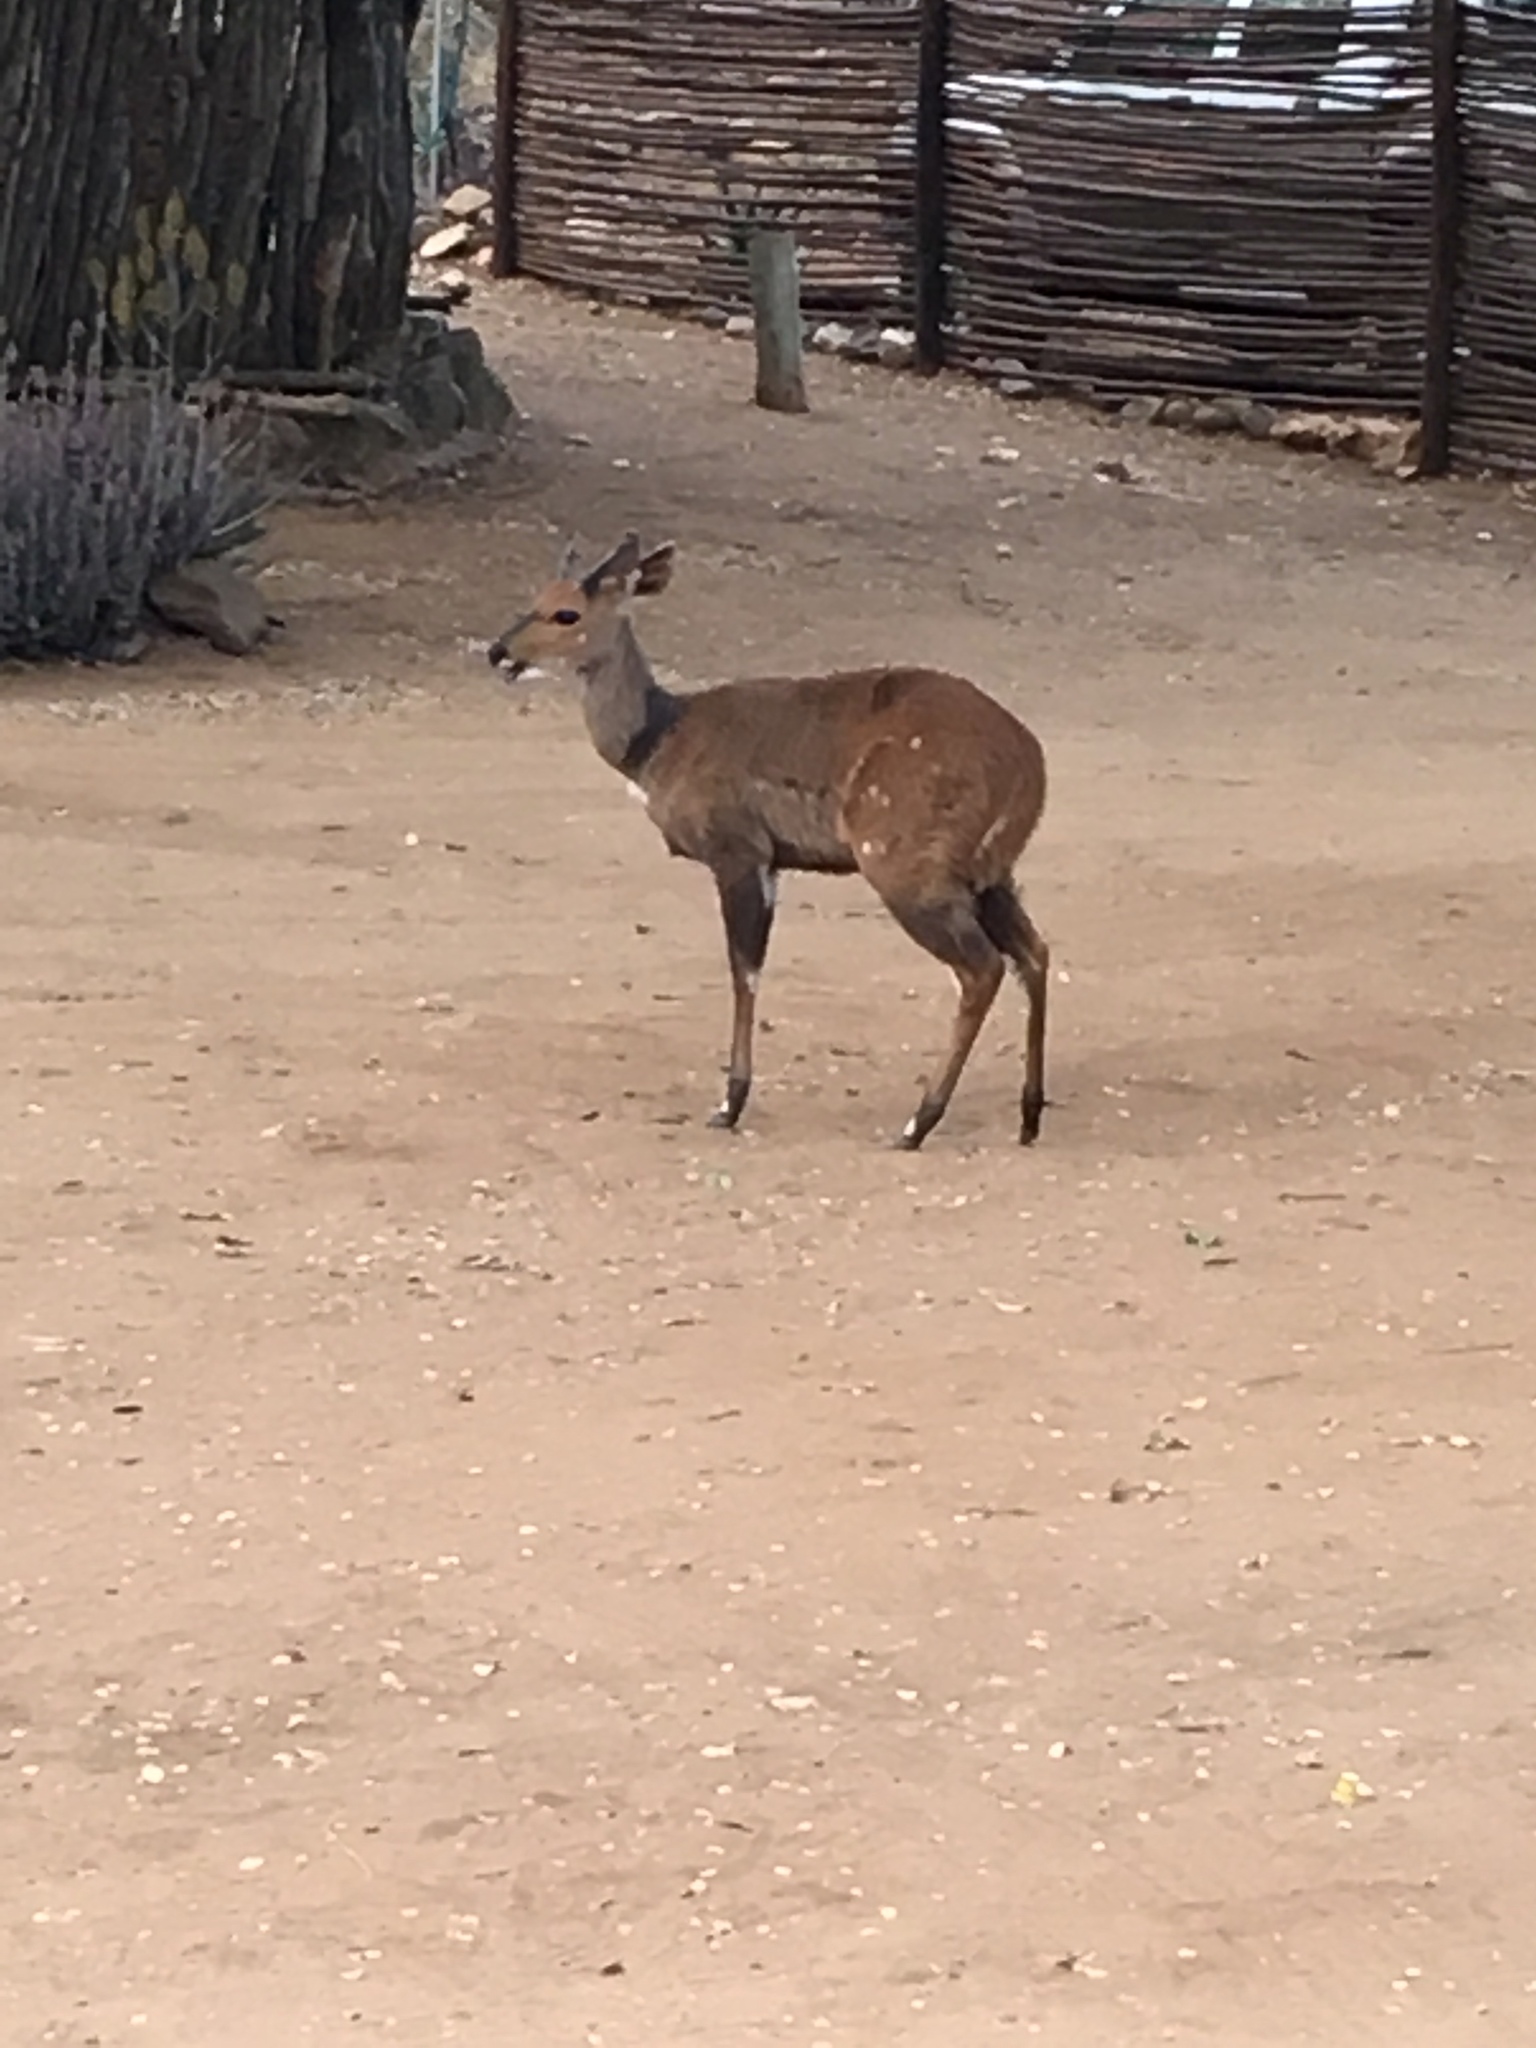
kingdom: Animalia
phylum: Chordata
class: Mammalia
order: Artiodactyla
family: Bovidae
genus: Tragelaphus
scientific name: Tragelaphus scriptus
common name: Bushbuck
